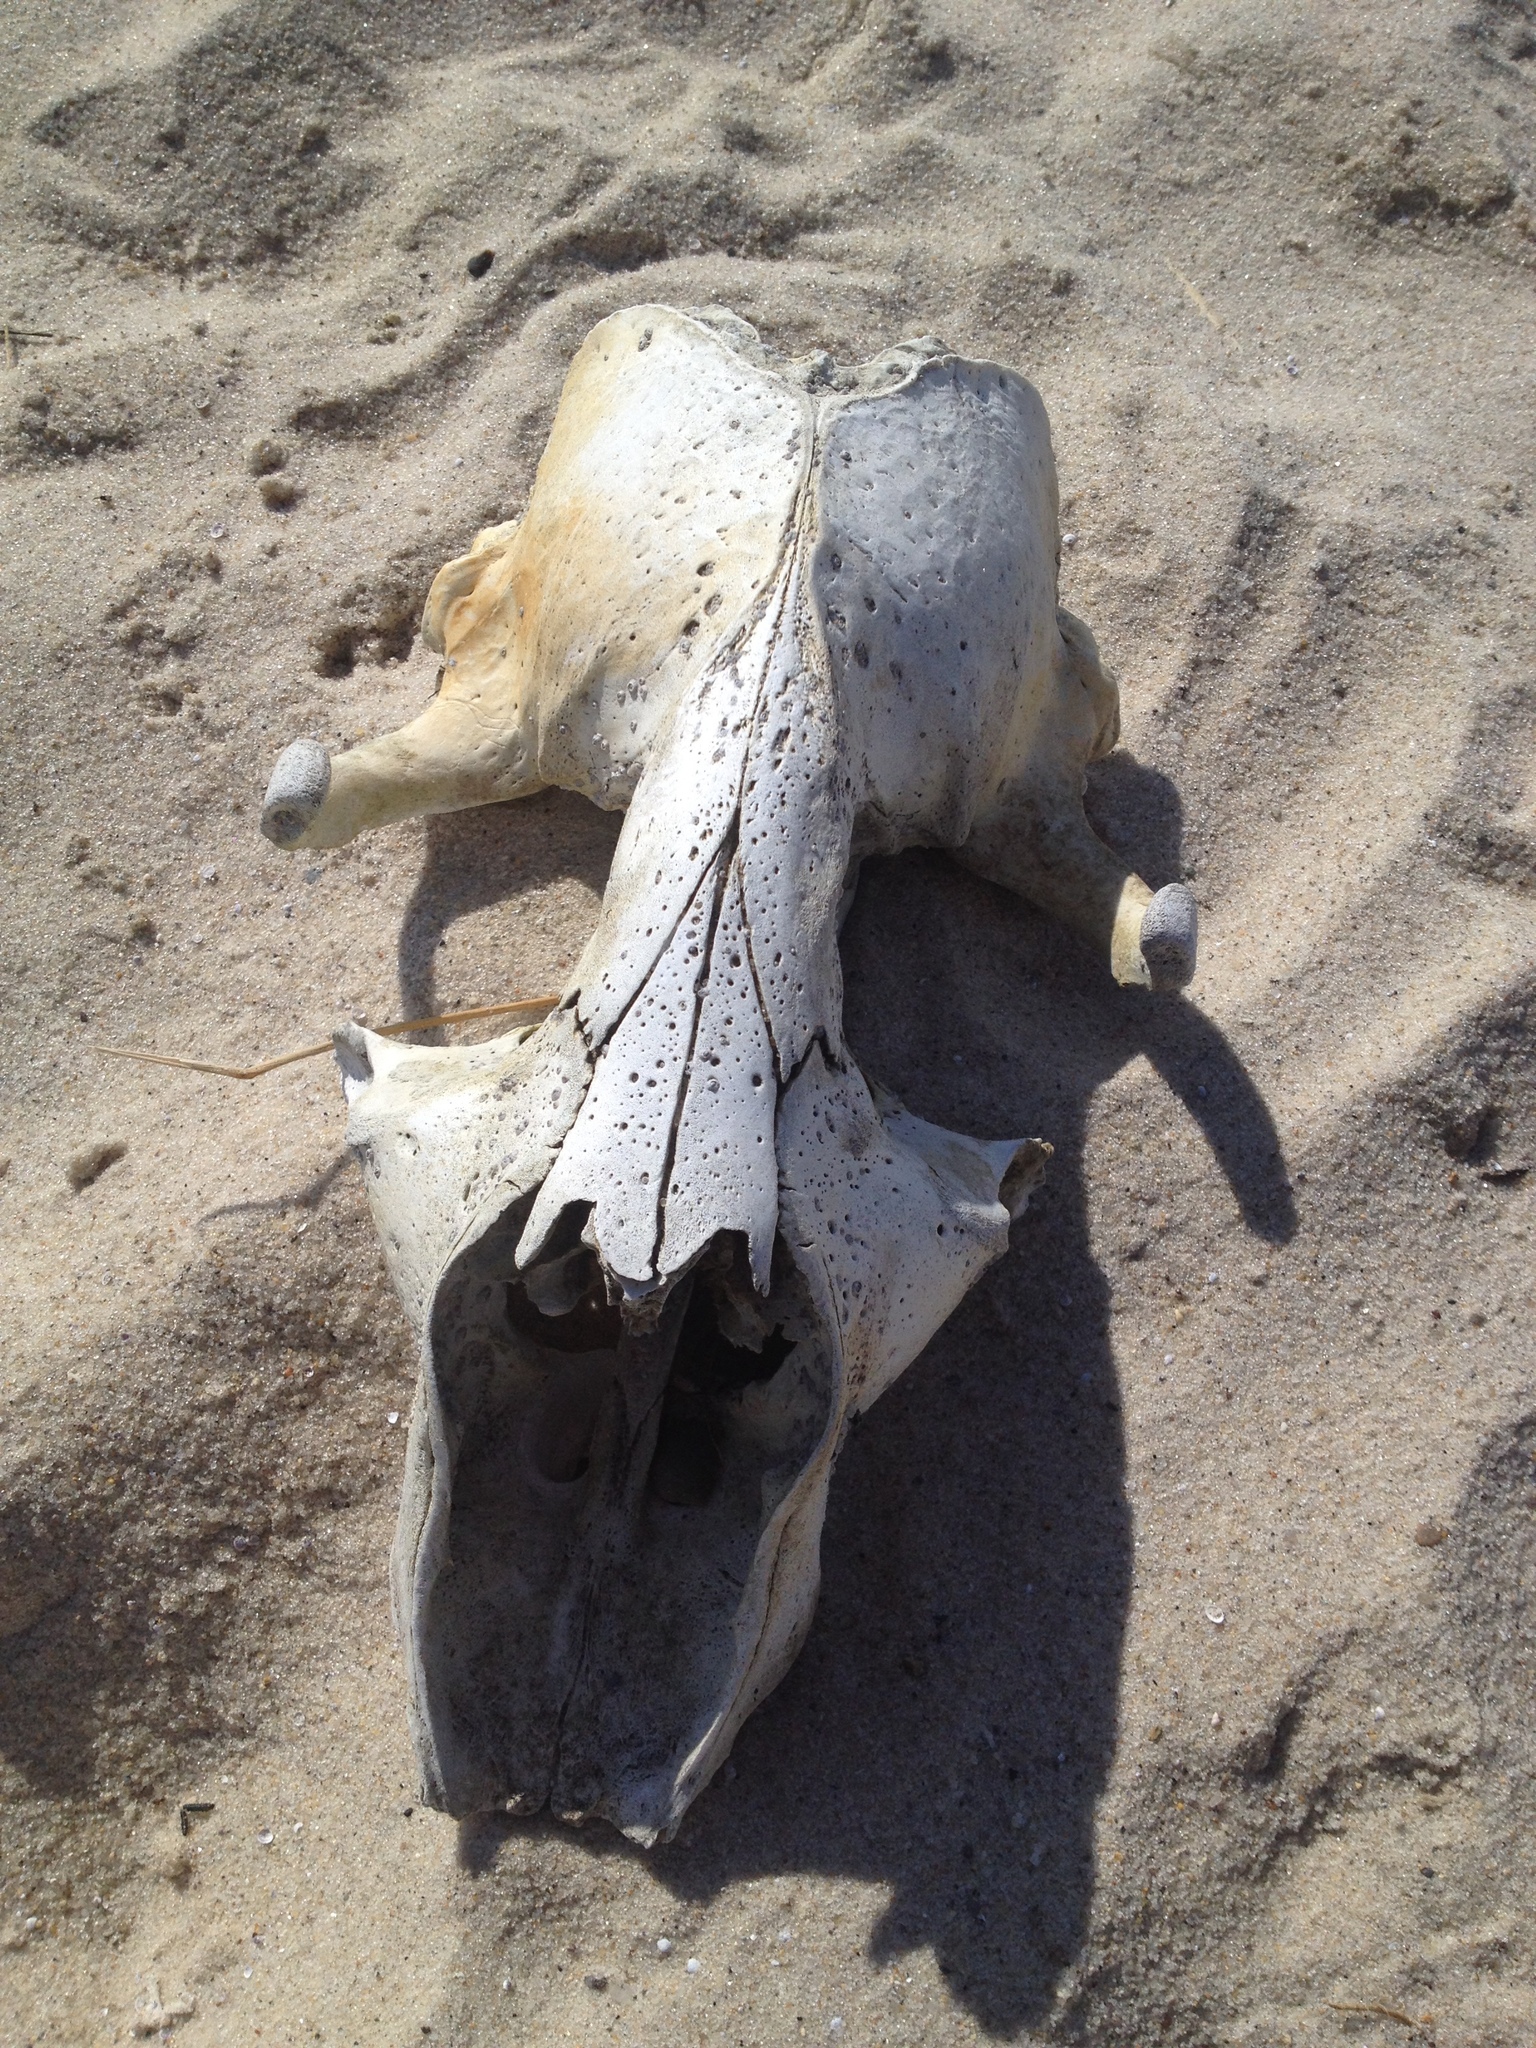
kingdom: Animalia
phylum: Chordata
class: Mammalia
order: Carnivora
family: Phocidae
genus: Halichoerus
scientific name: Halichoerus grypus
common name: Grey seal
